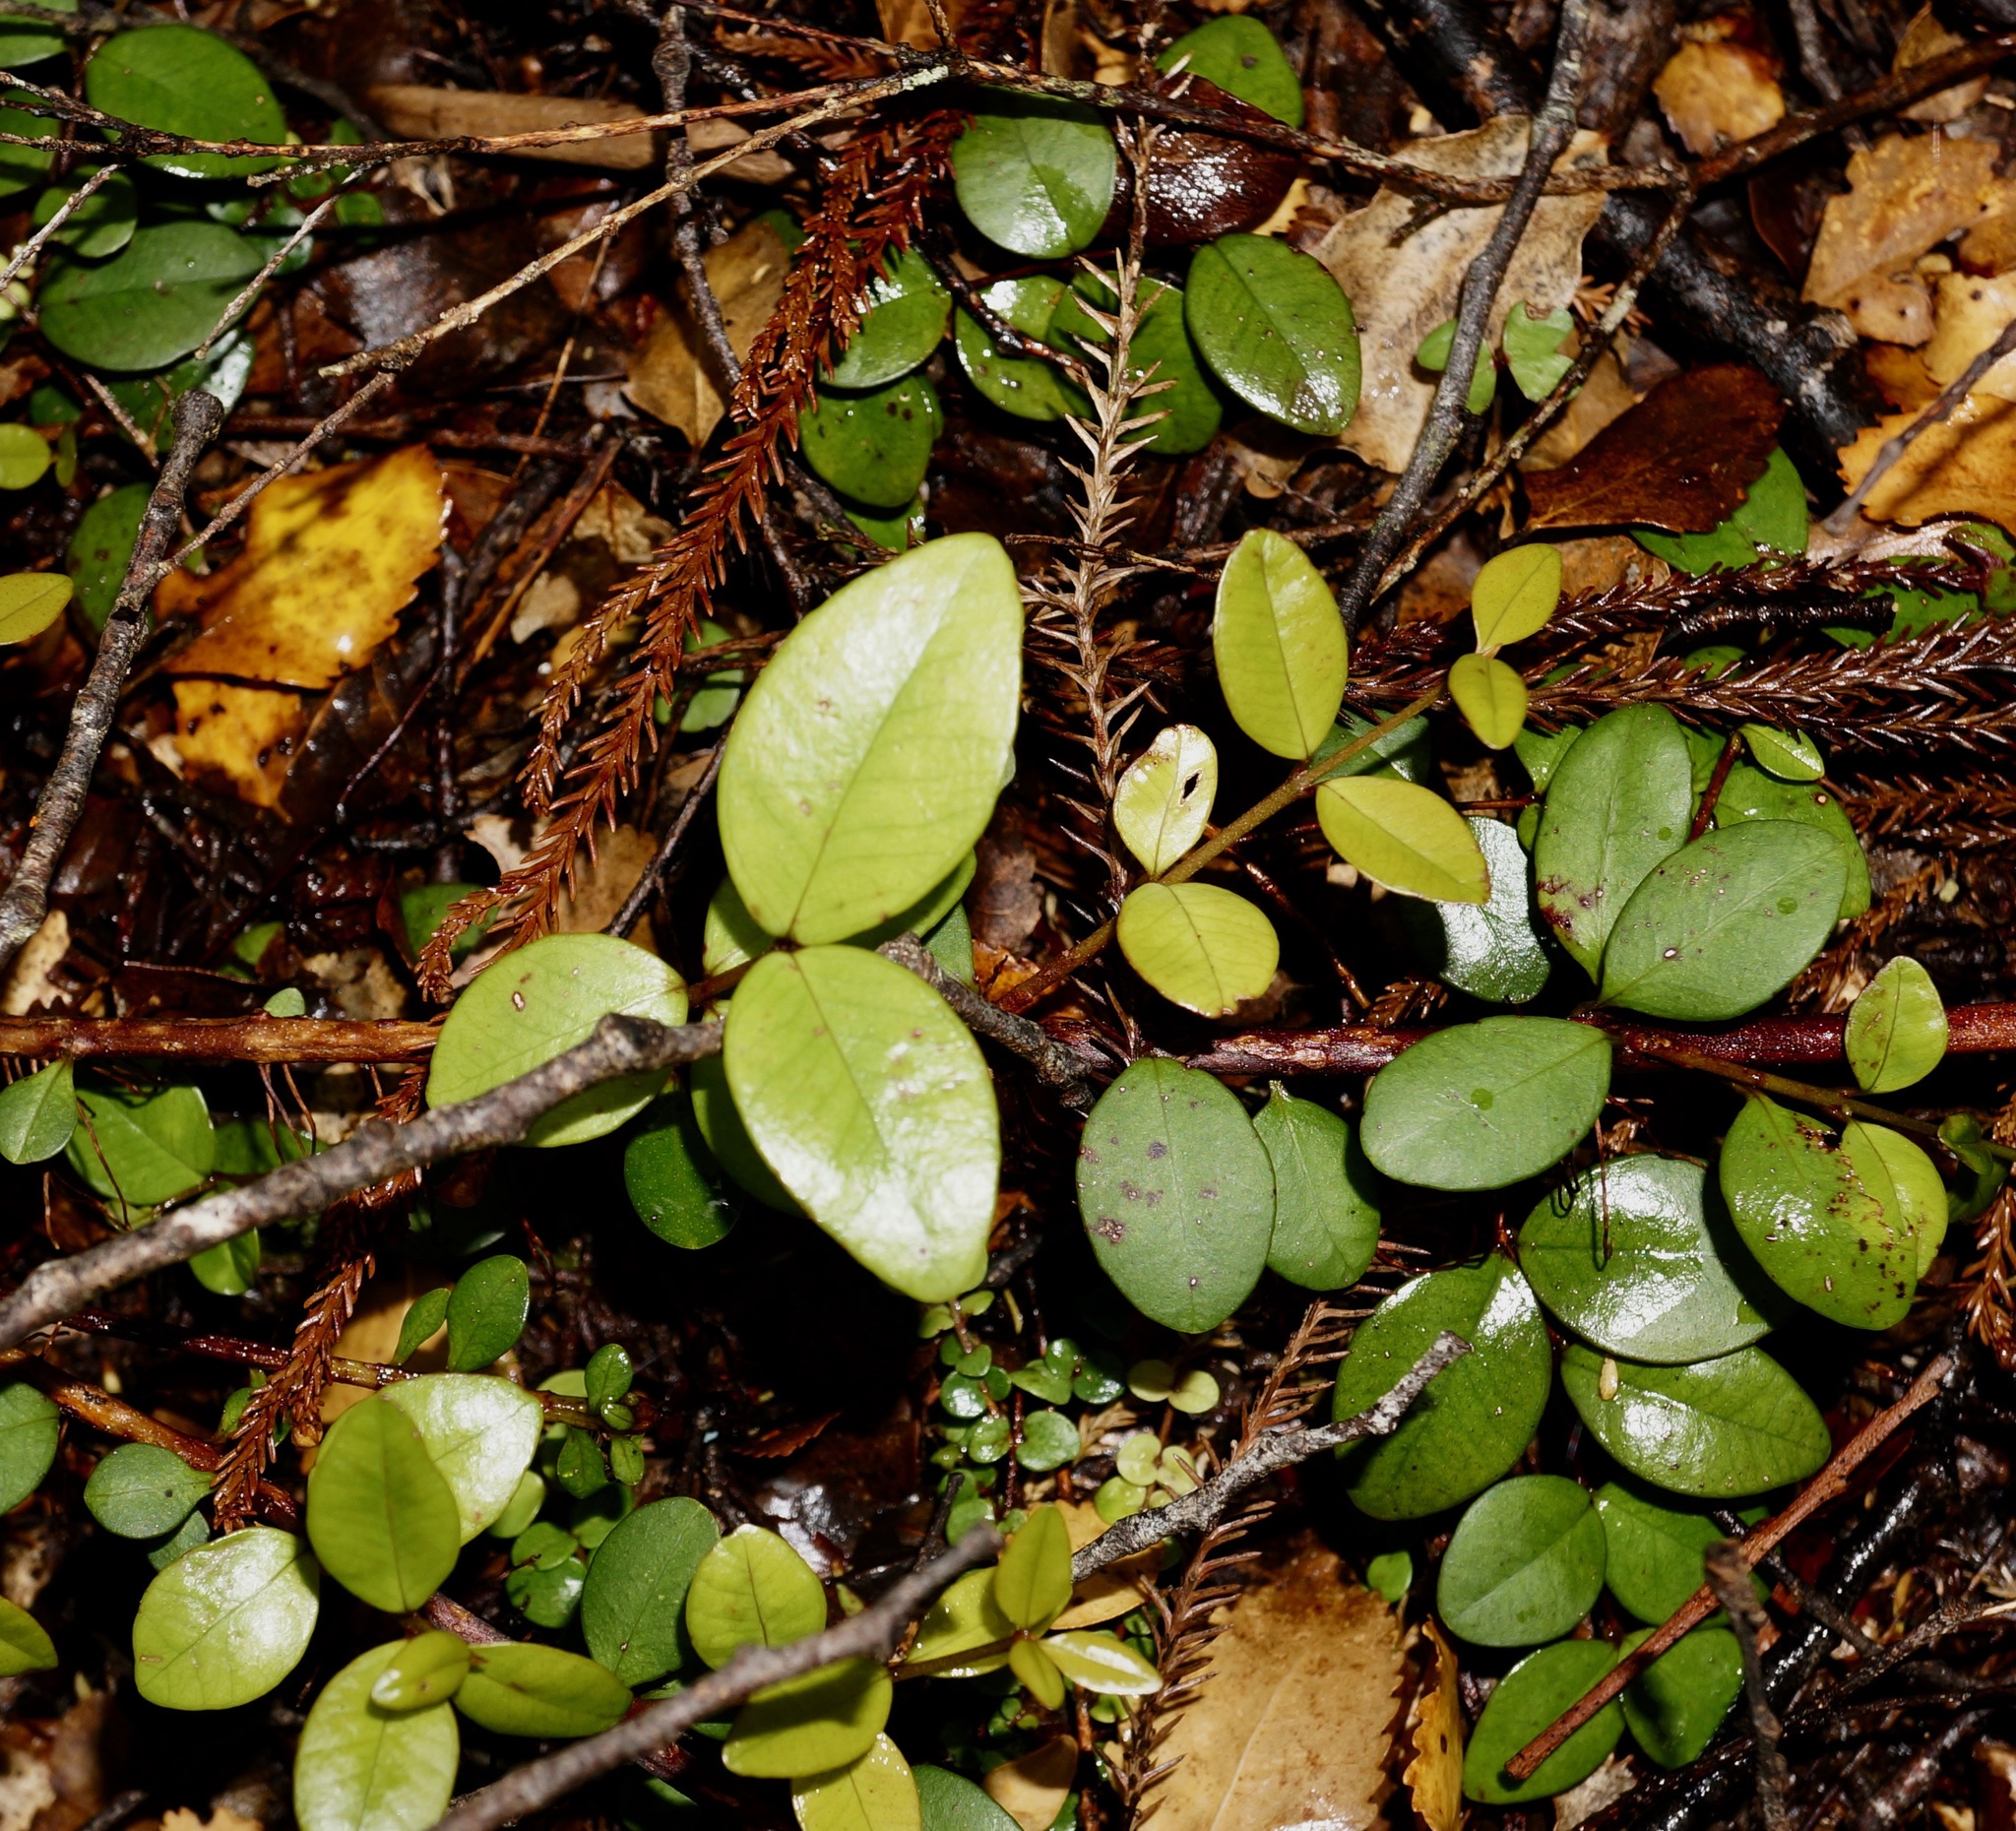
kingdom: Plantae
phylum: Tracheophyta
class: Magnoliopsida
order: Myrtales
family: Myrtaceae
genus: Metrosideros
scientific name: Metrosideros fulgens
